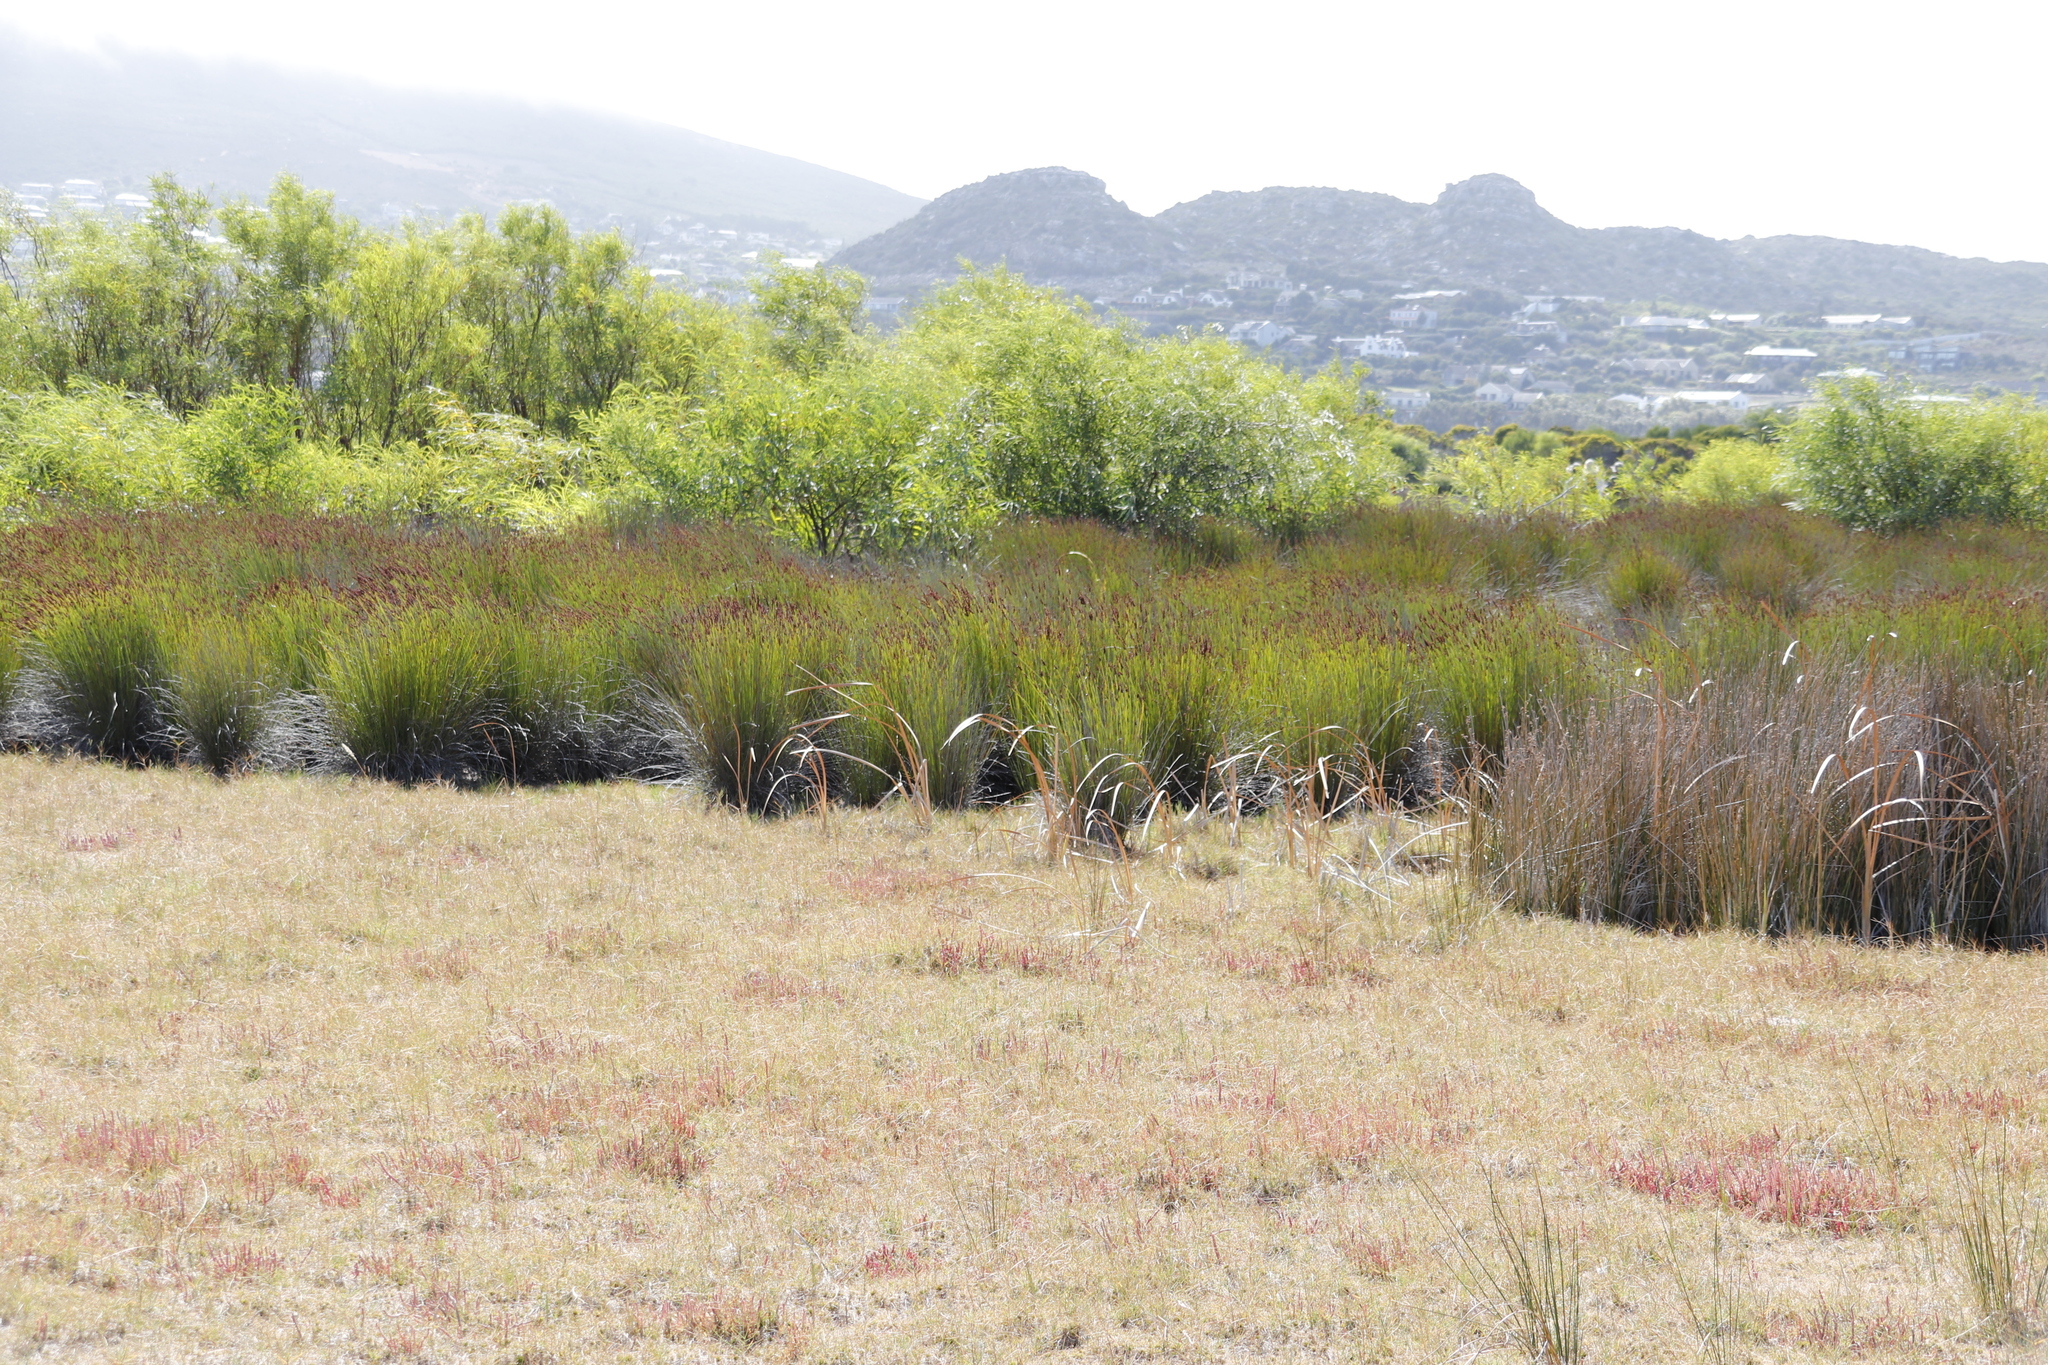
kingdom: Plantae
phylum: Tracheophyta
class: Liliopsida
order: Poales
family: Restionaceae
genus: Elegia
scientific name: Elegia tectorum
